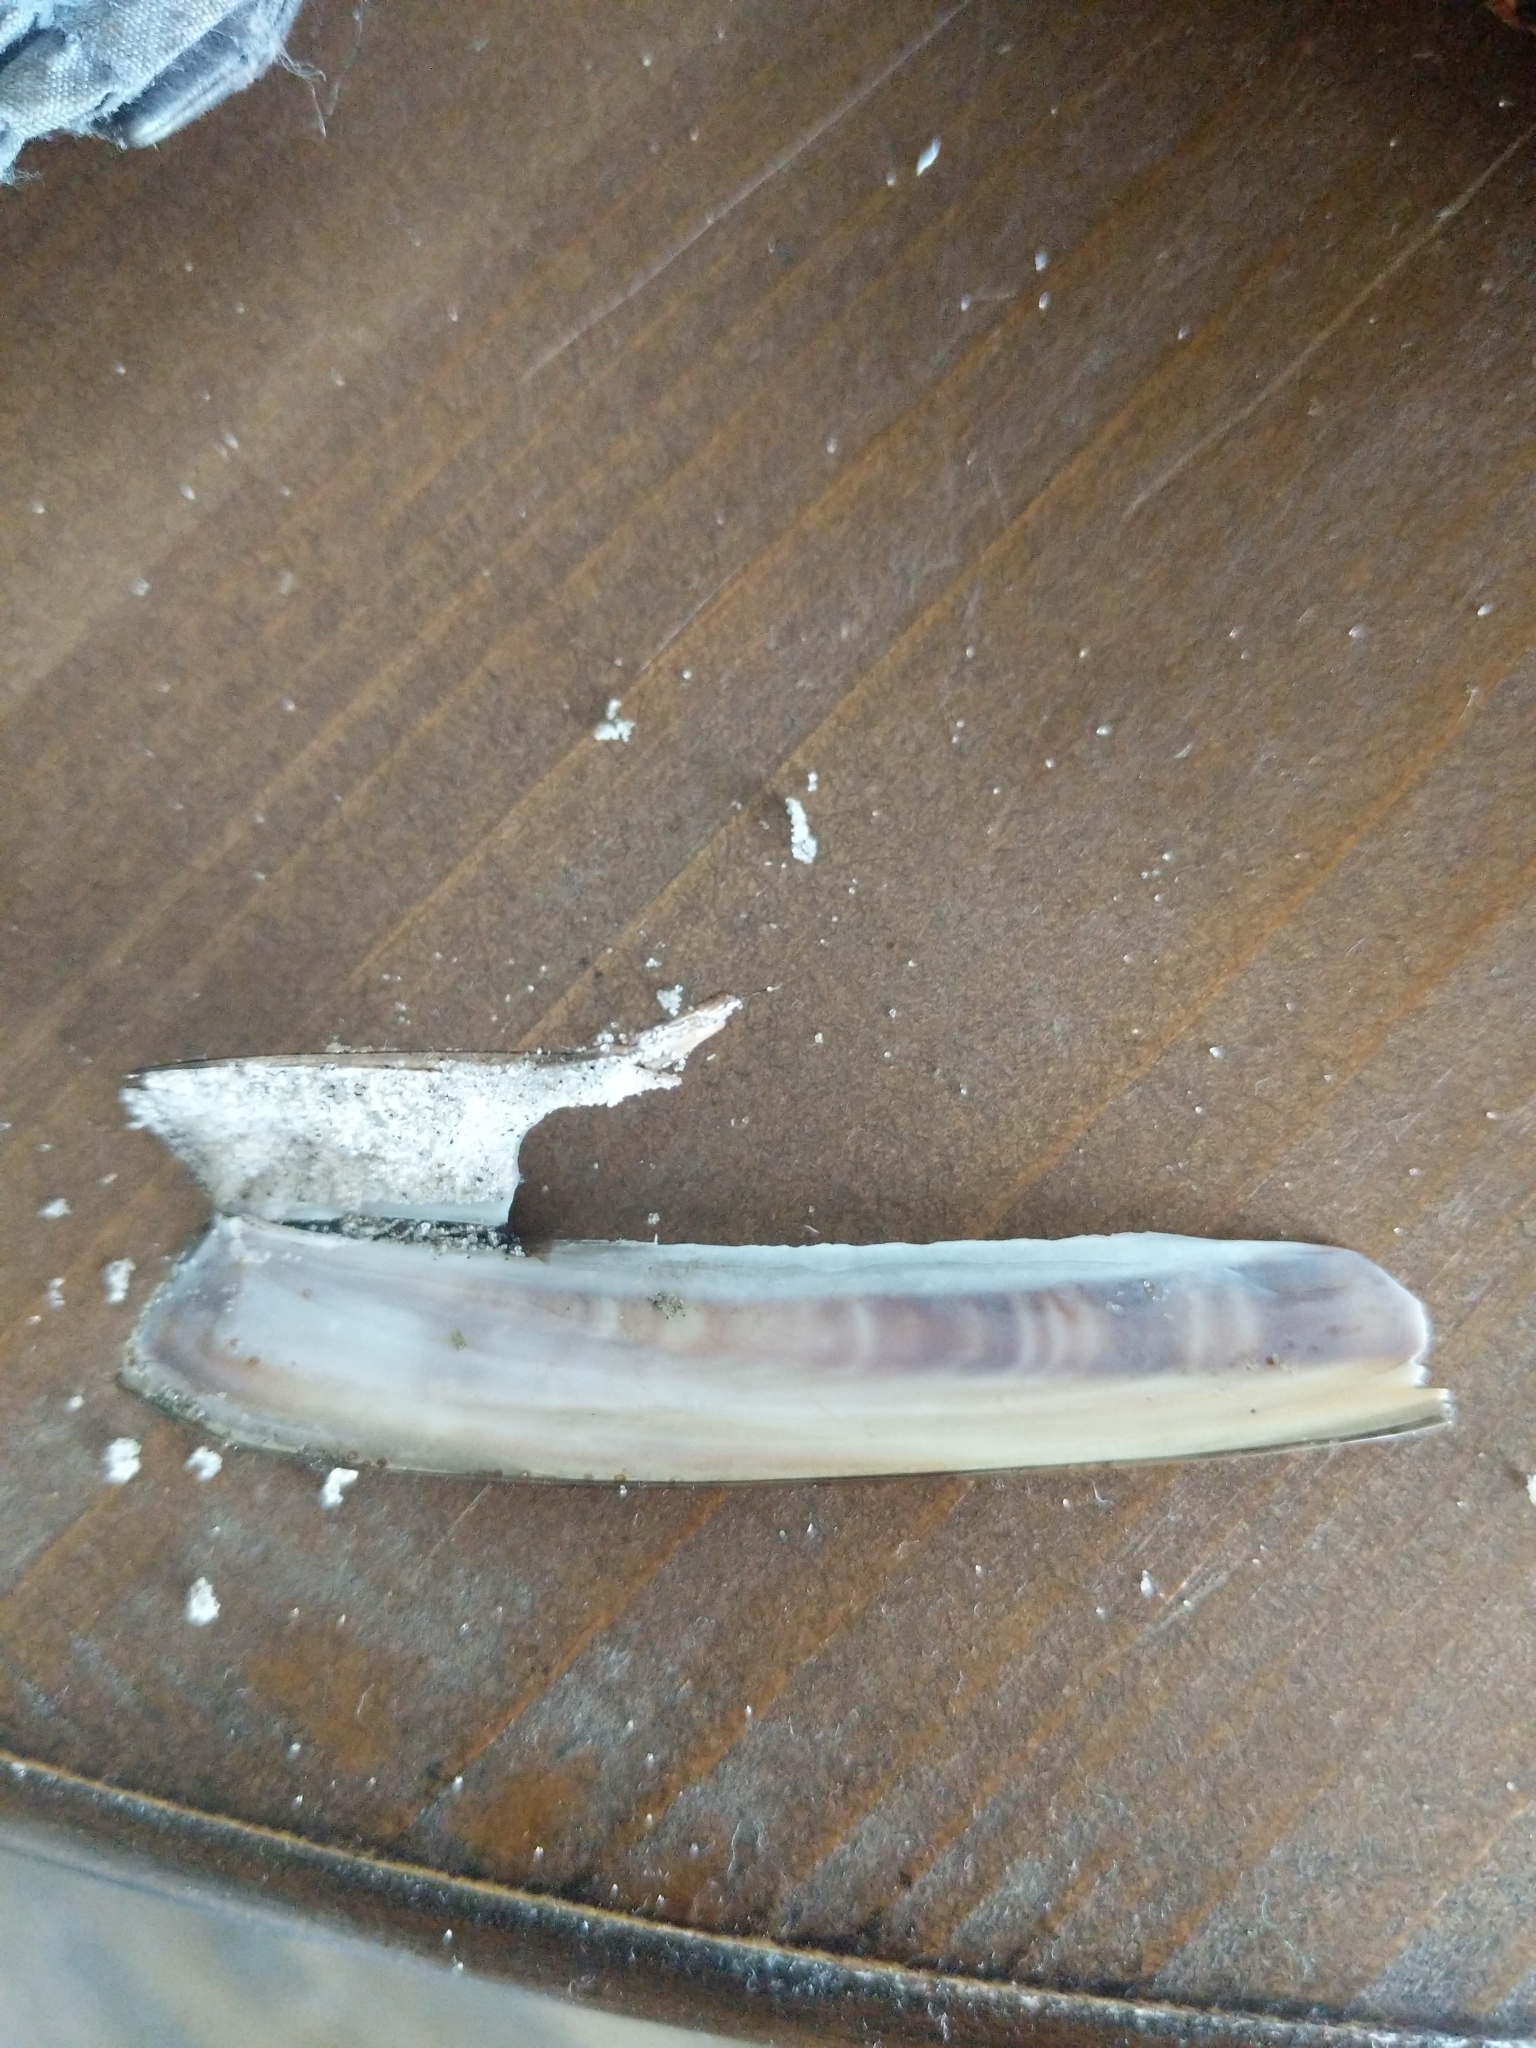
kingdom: Animalia
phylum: Mollusca
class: Bivalvia
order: Adapedonta
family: Pharidae
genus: Ensis
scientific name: Ensis leei
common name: American jack knife clam
